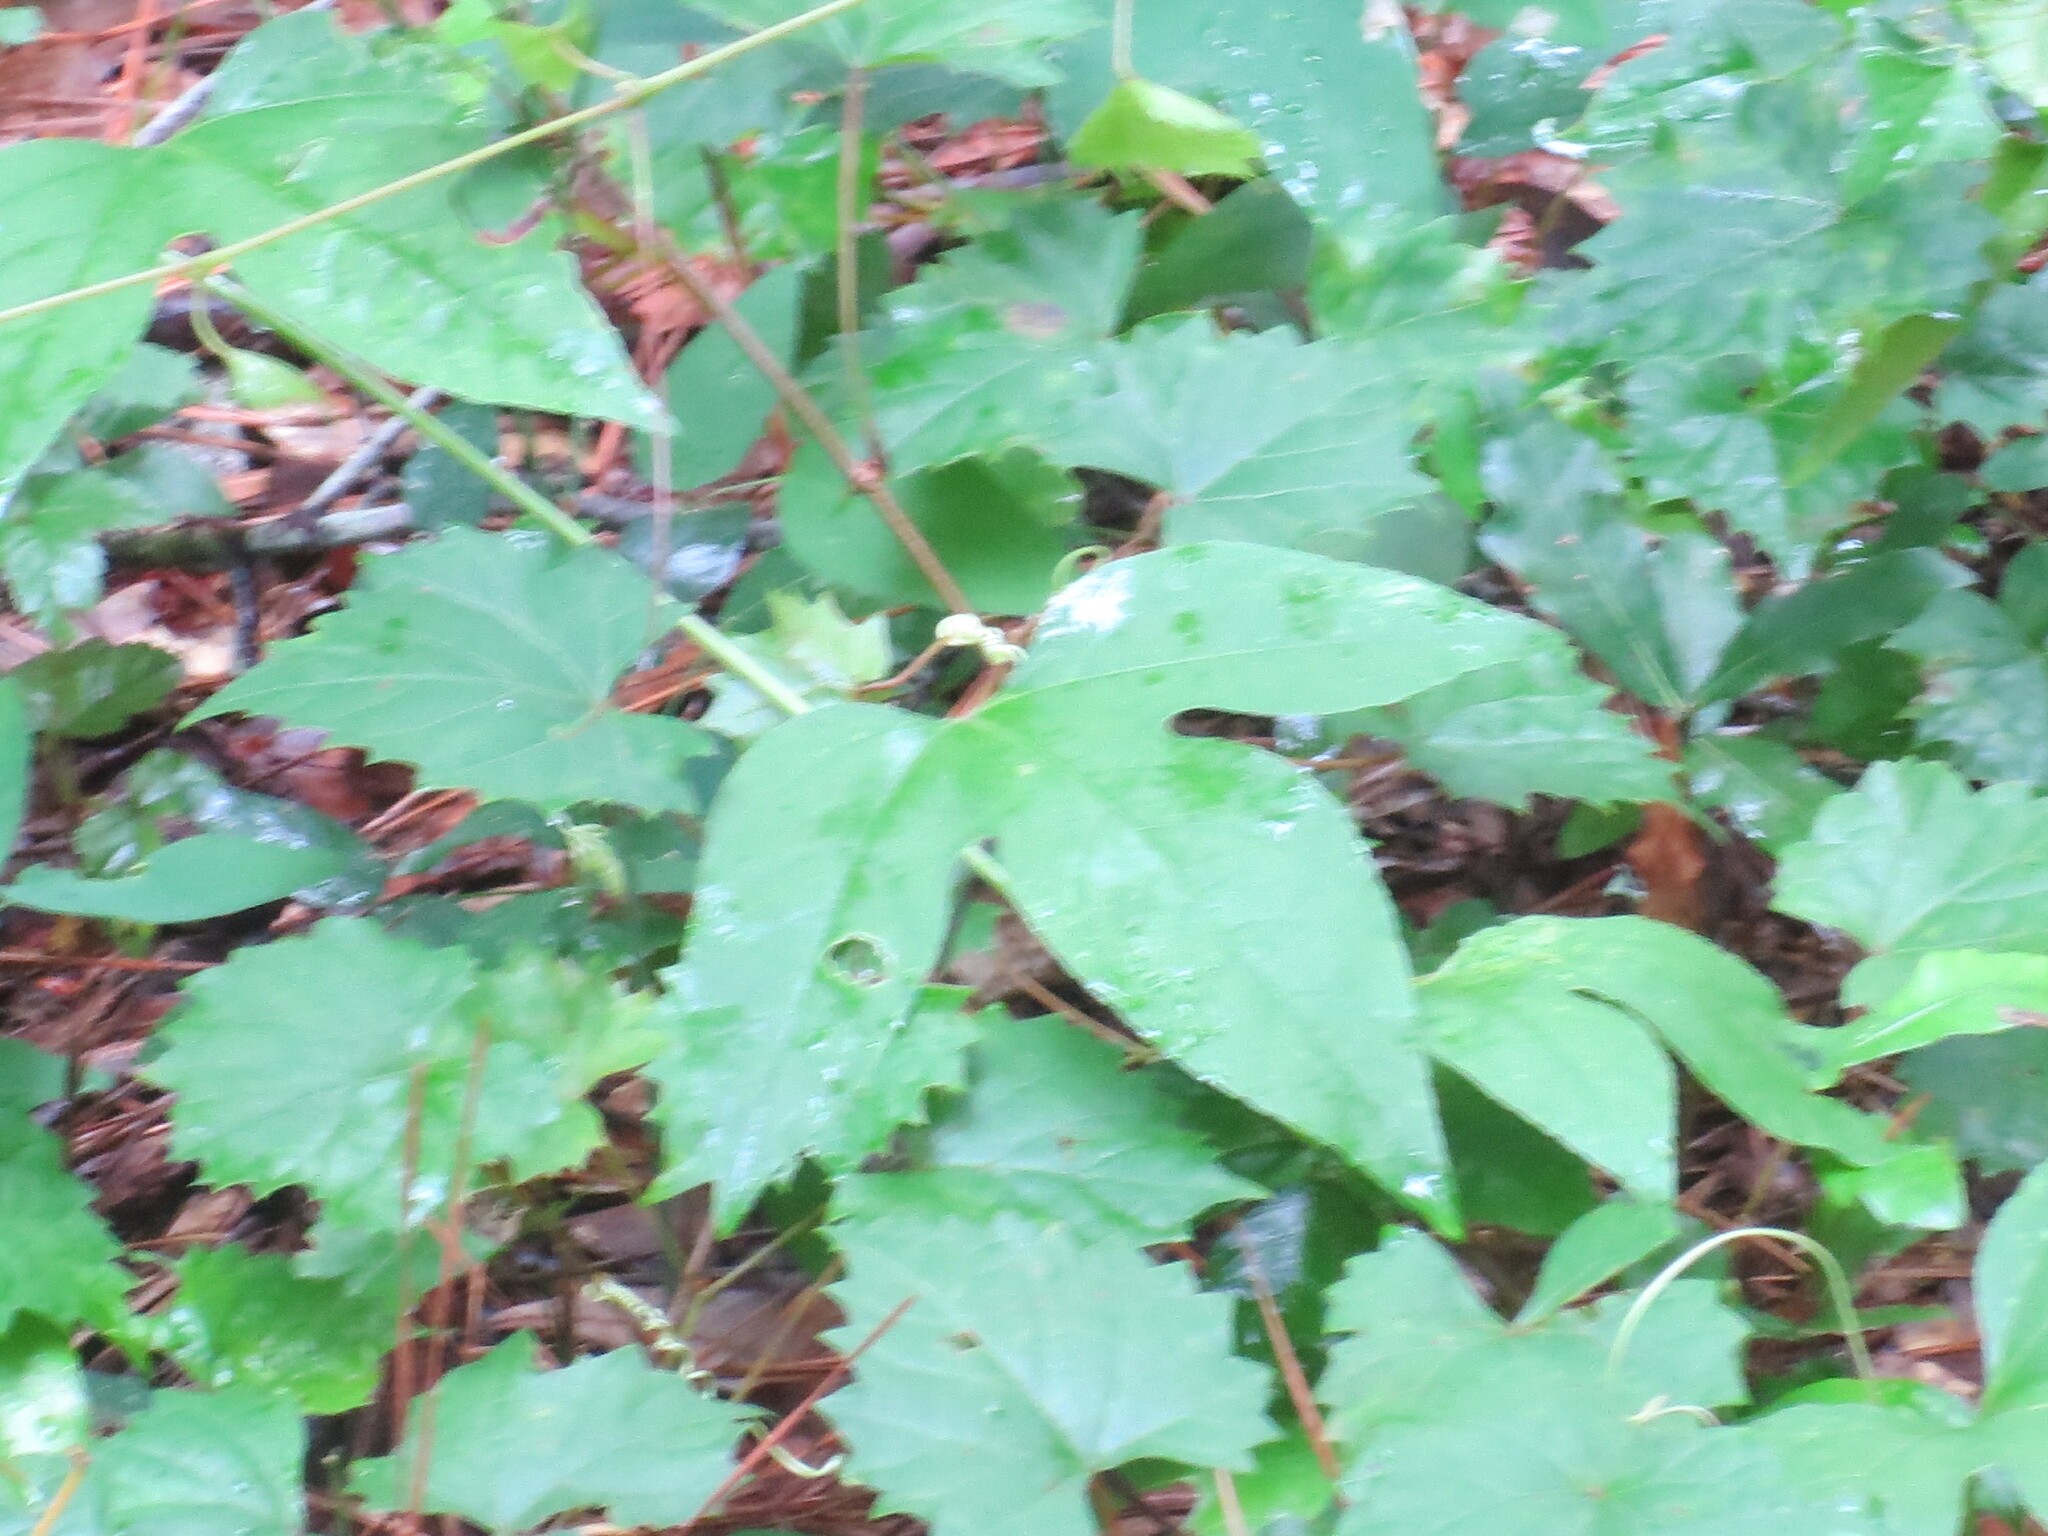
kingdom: Plantae
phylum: Tracheophyta
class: Magnoliopsida
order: Malpighiales
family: Passifloraceae
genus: Passiflora
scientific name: Passiflora incarnata
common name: Apricot-vine
